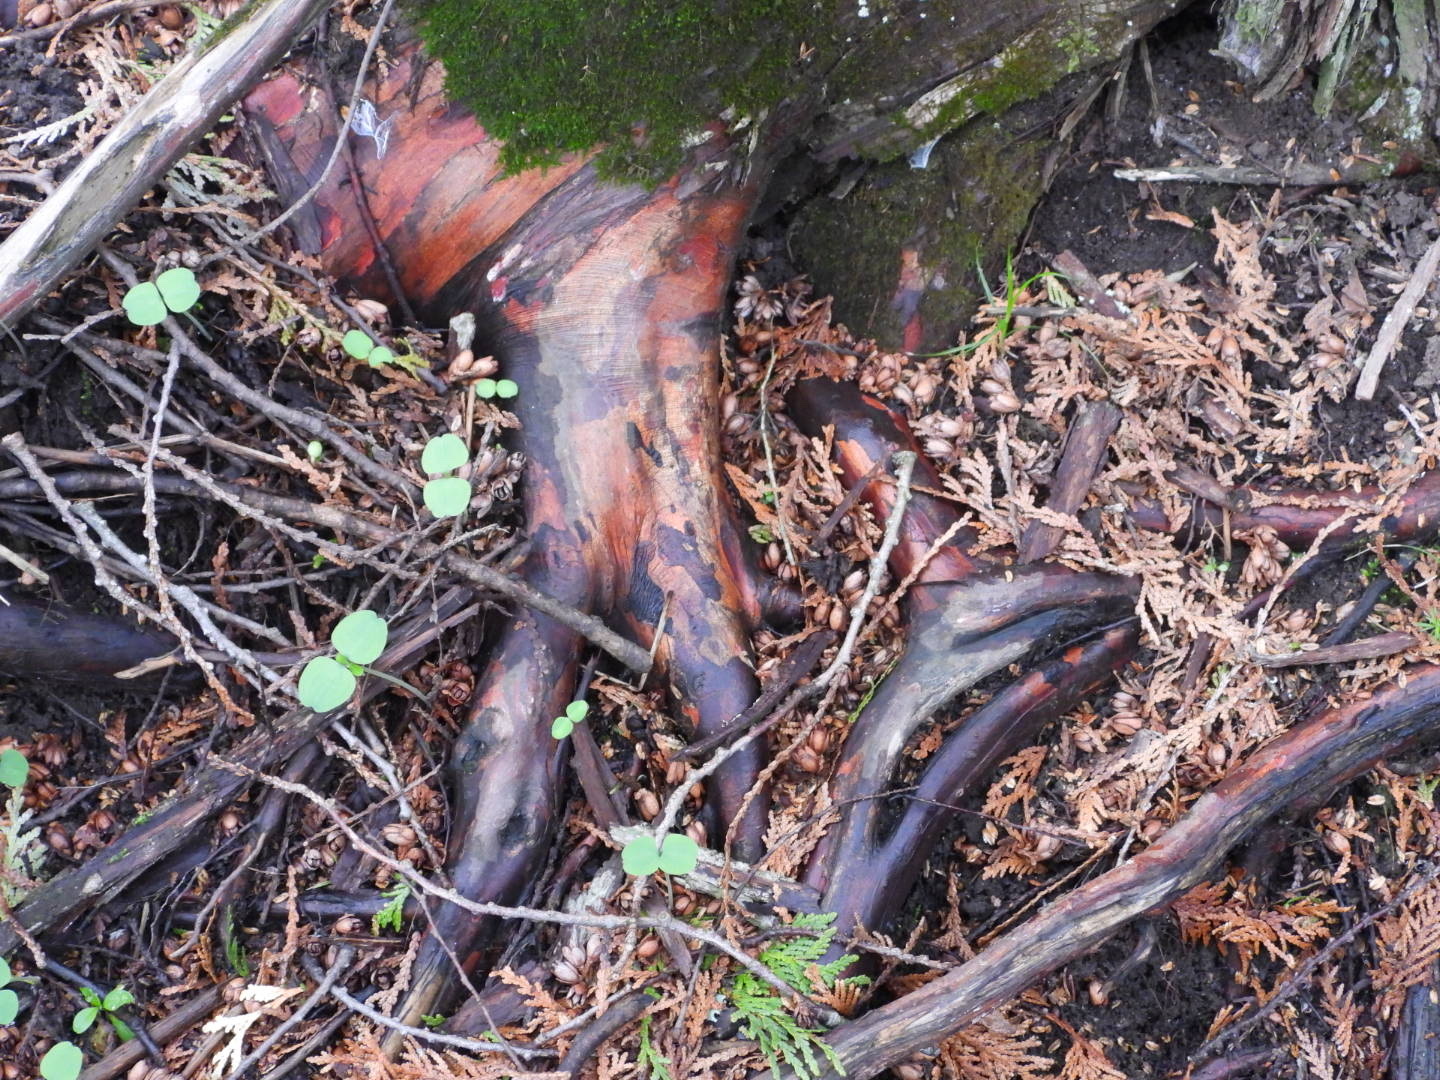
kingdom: Plantae
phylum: Tracheophyta
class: Pinopsida
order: Pinales
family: Cupressaceae
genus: Thuja
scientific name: Thuja occidentalis
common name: Northern white-cedar
